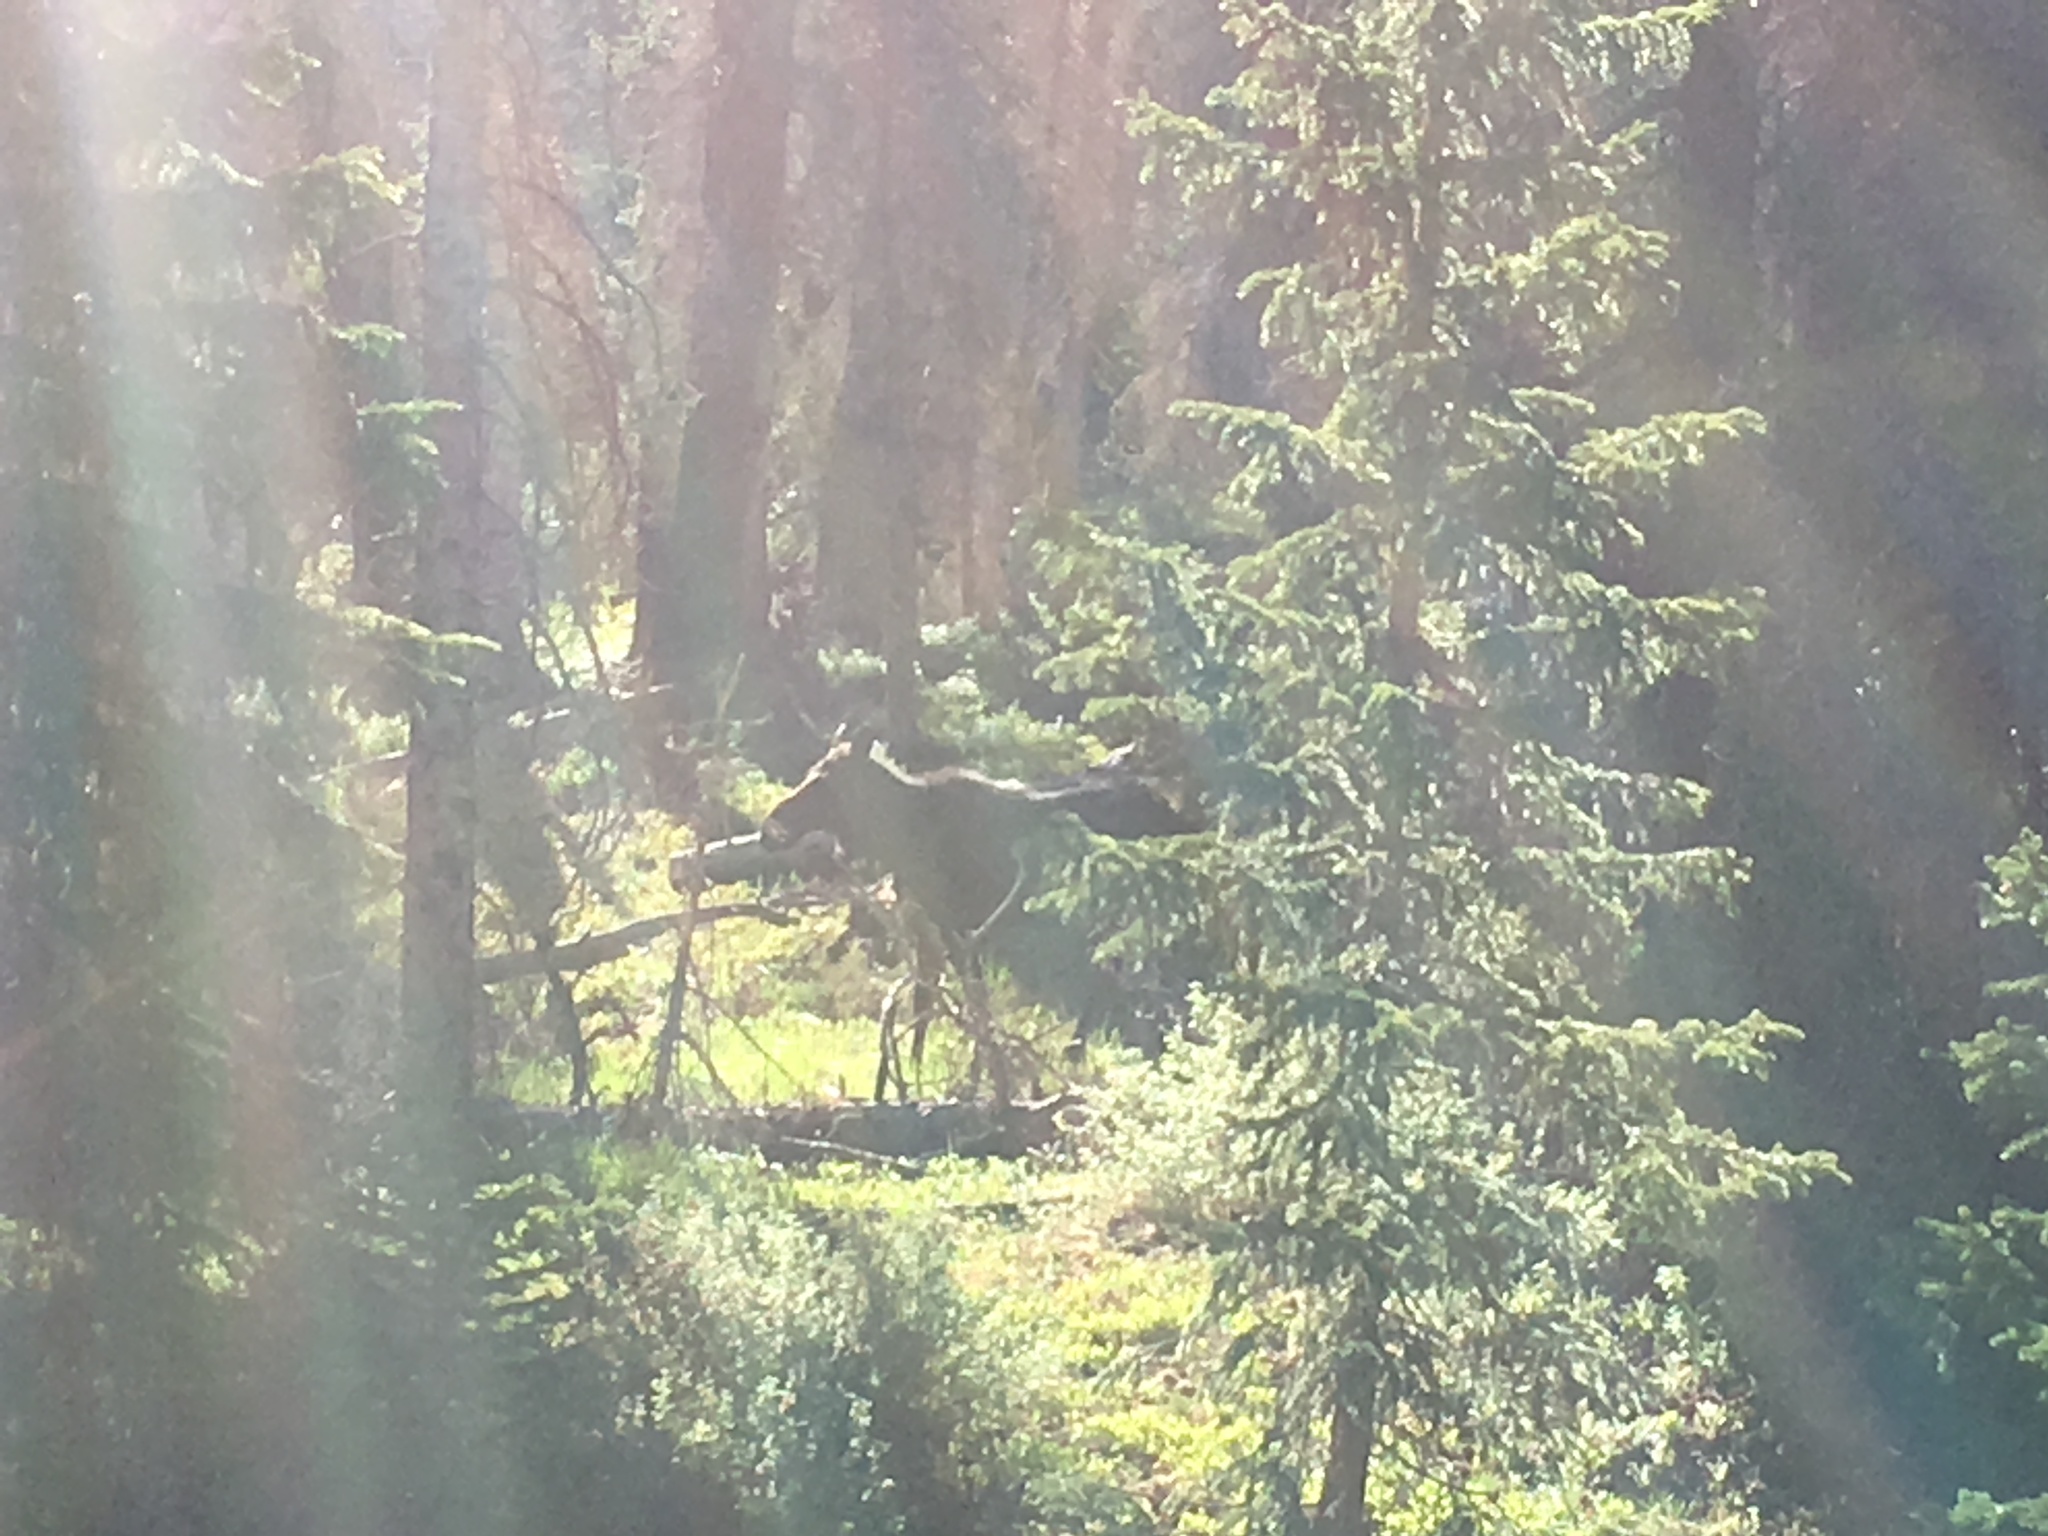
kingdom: Animalia
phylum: Chordata
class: Mammalia
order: Artiodactyla
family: Cervidae
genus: Alces
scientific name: Alces alces
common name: Moose
